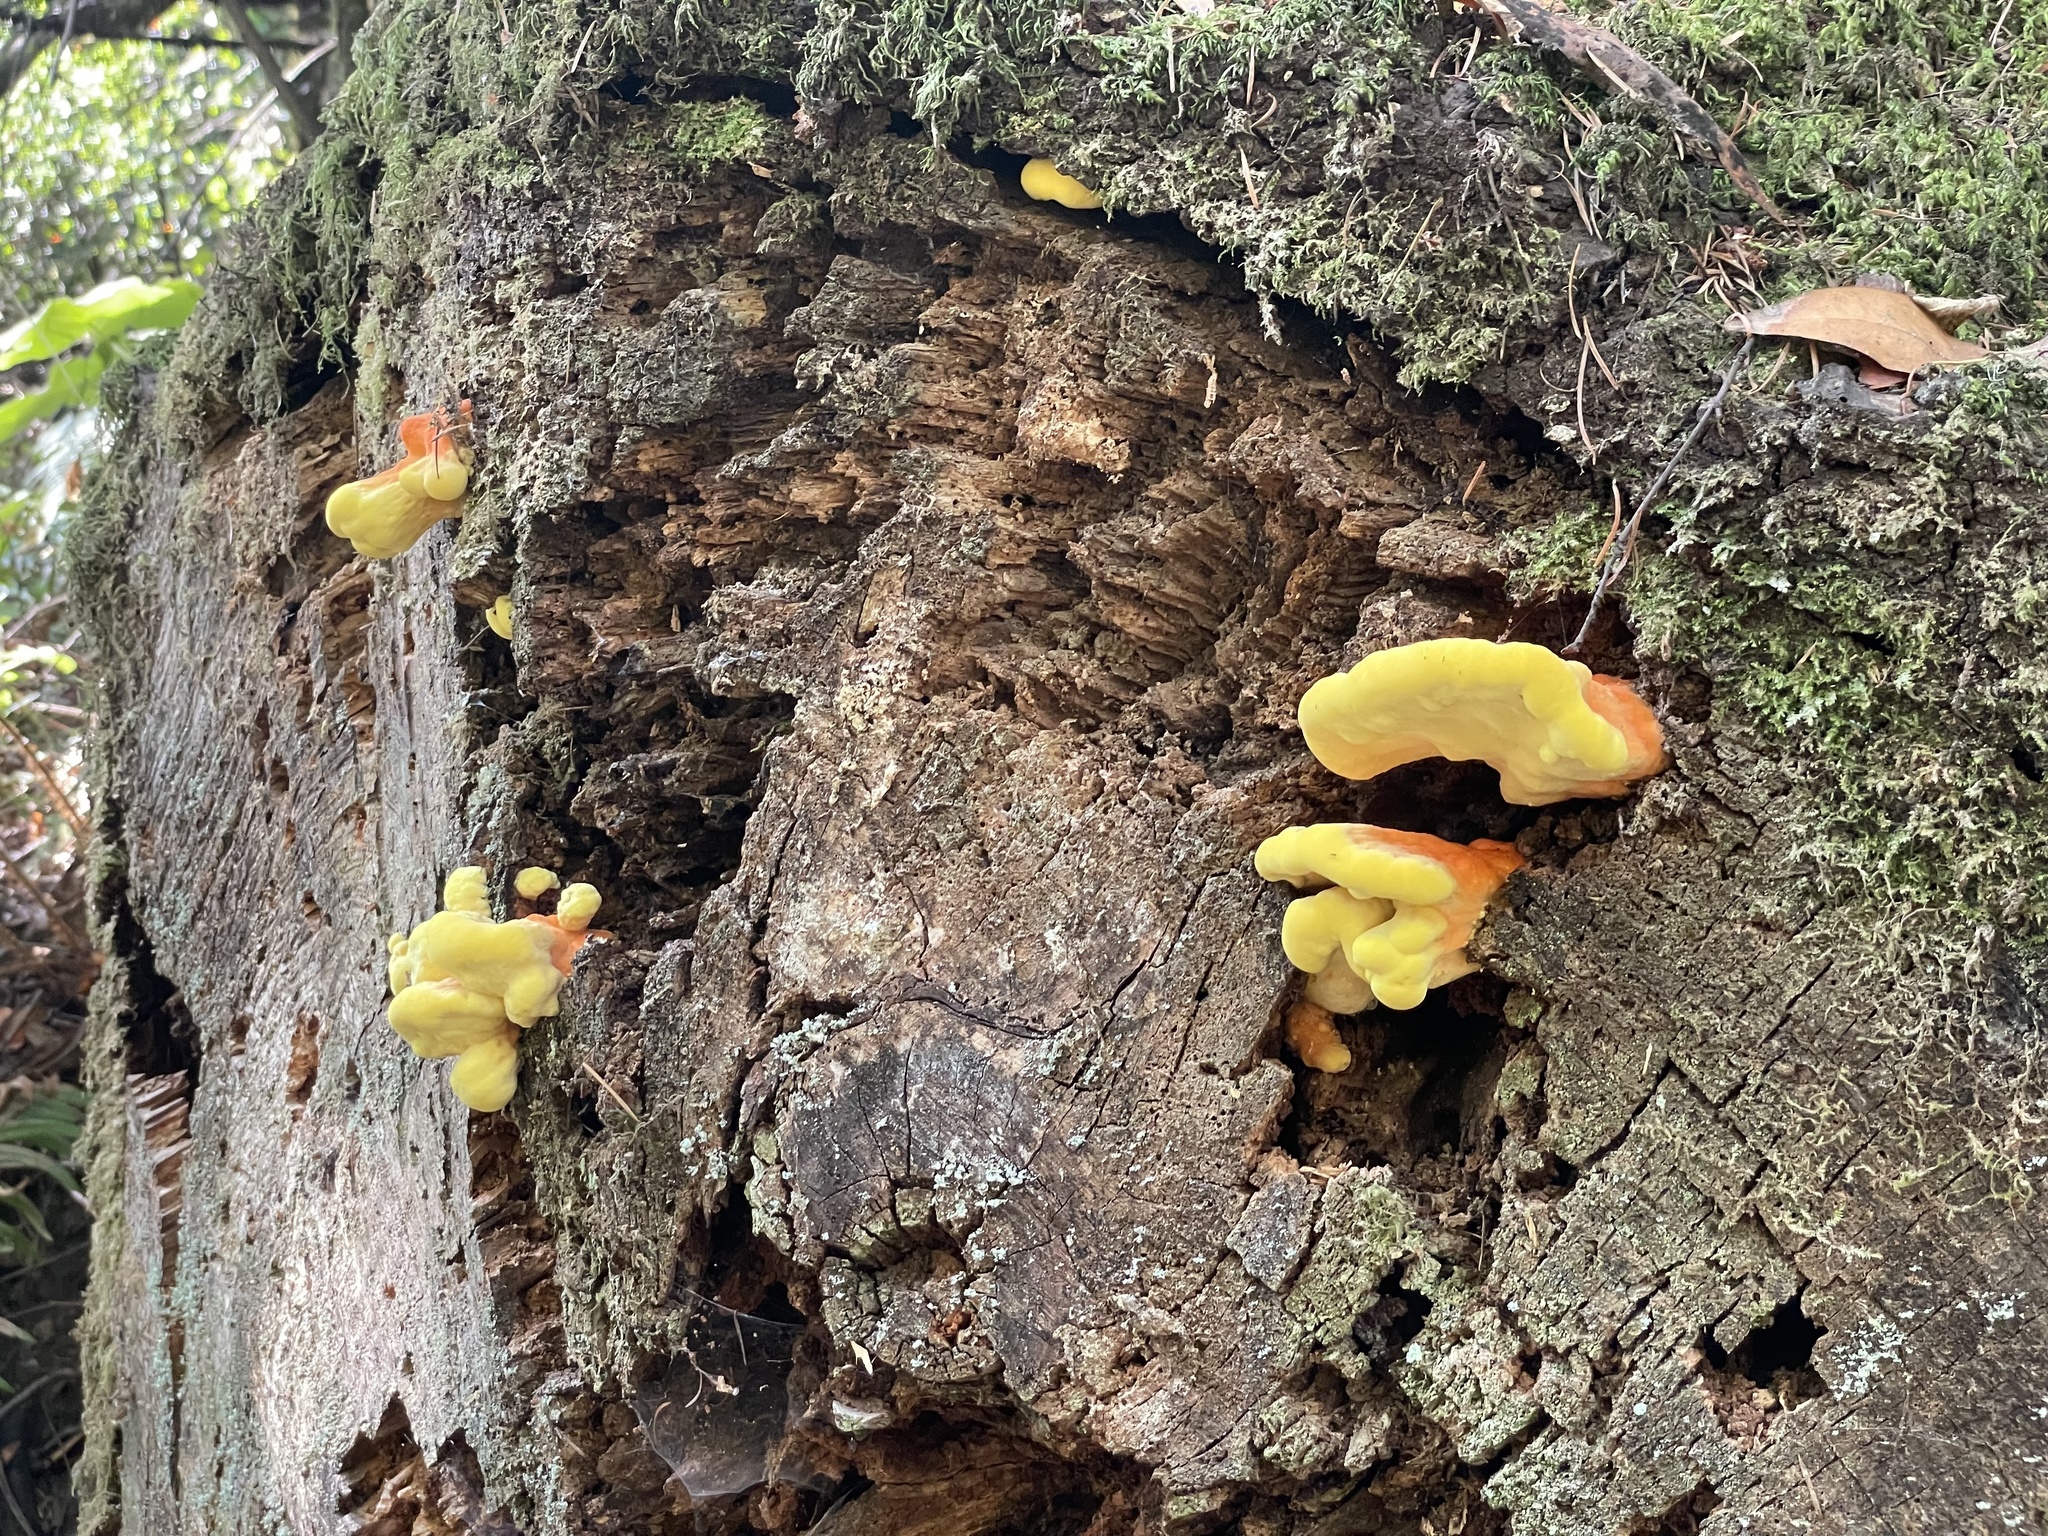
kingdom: Fungi
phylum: Basidiomycota
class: Agaricomycetes
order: Polyporales
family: Laetiporaceae
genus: Laetiporus
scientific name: Laetiporus conifericola
